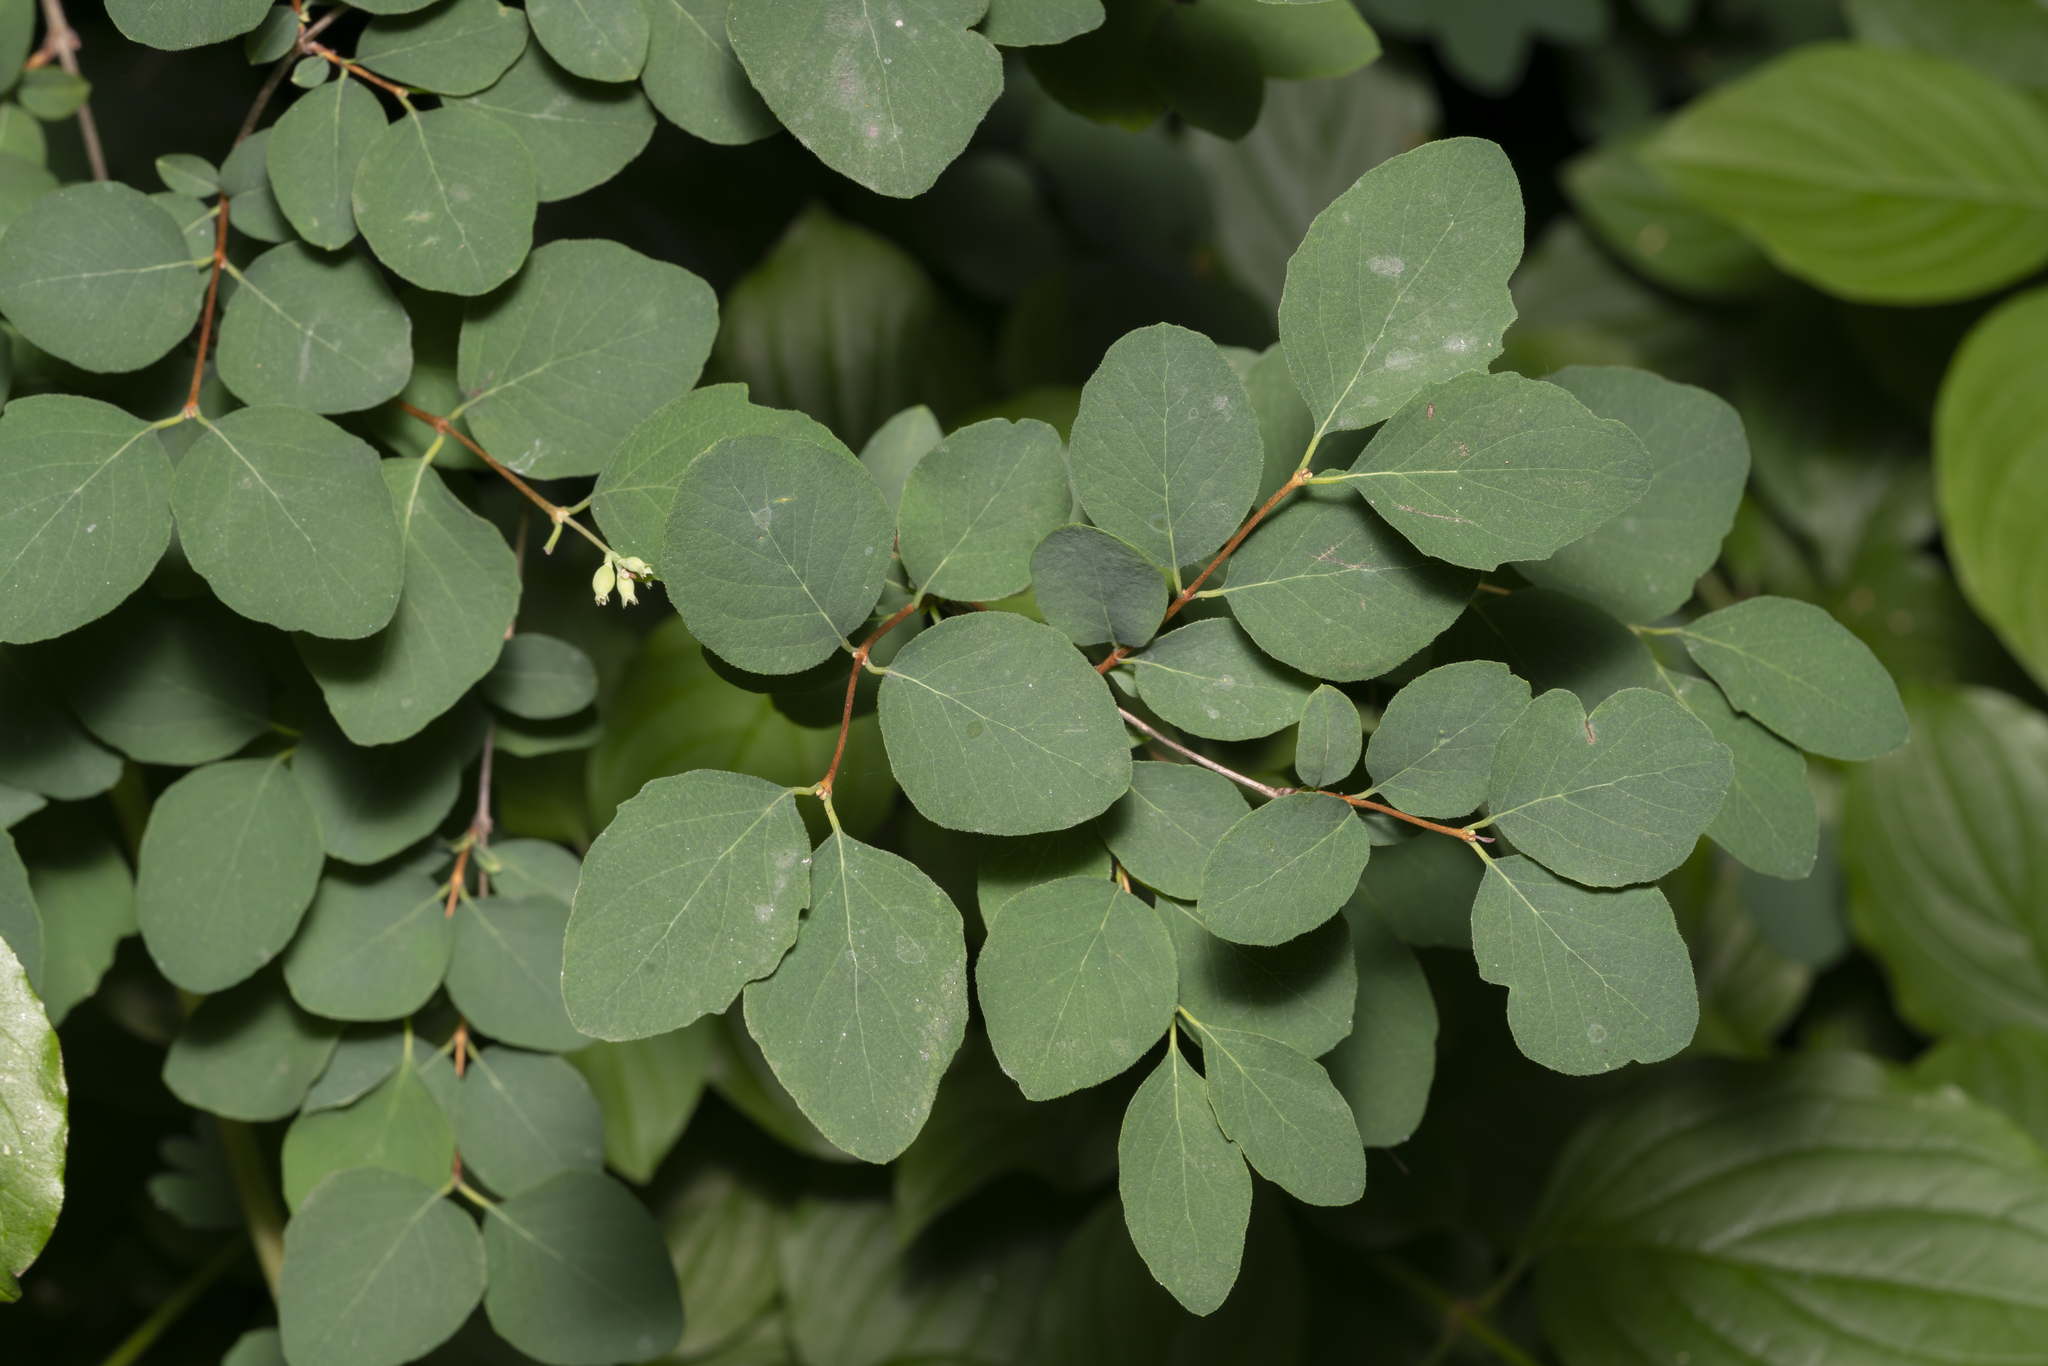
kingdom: Plantae
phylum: Tracheophyta
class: Magnoliopsida
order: Dipsacales
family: Caprifoliaceae
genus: Symphoricarpos
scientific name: Symphoricarpos albus
